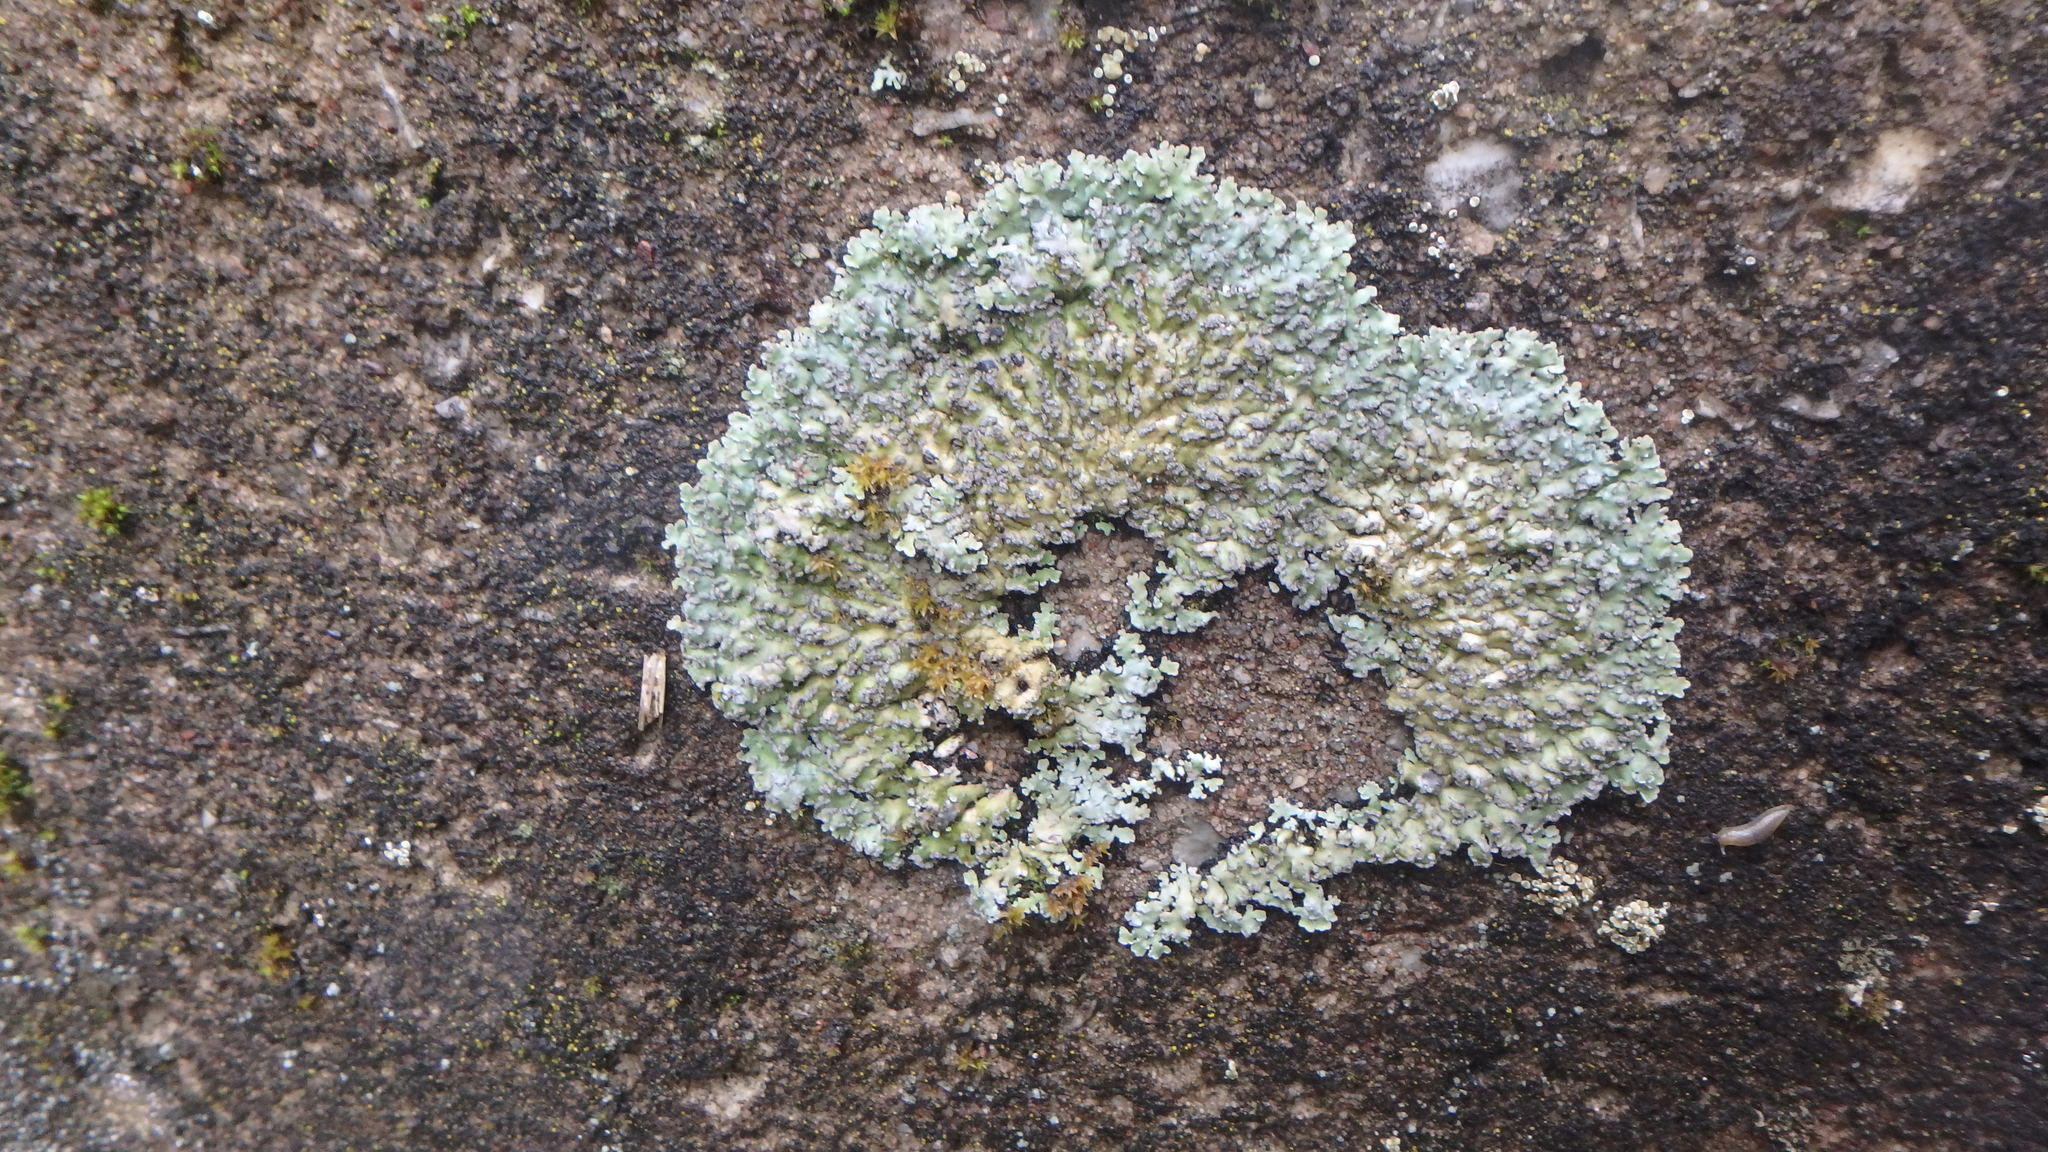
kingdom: Fungi
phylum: Ascomycota
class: Lecanoromycetes
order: Caliciales
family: Caliciaceae
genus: Pyxine
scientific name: Pyxine sorediata
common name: Mustard lichen
